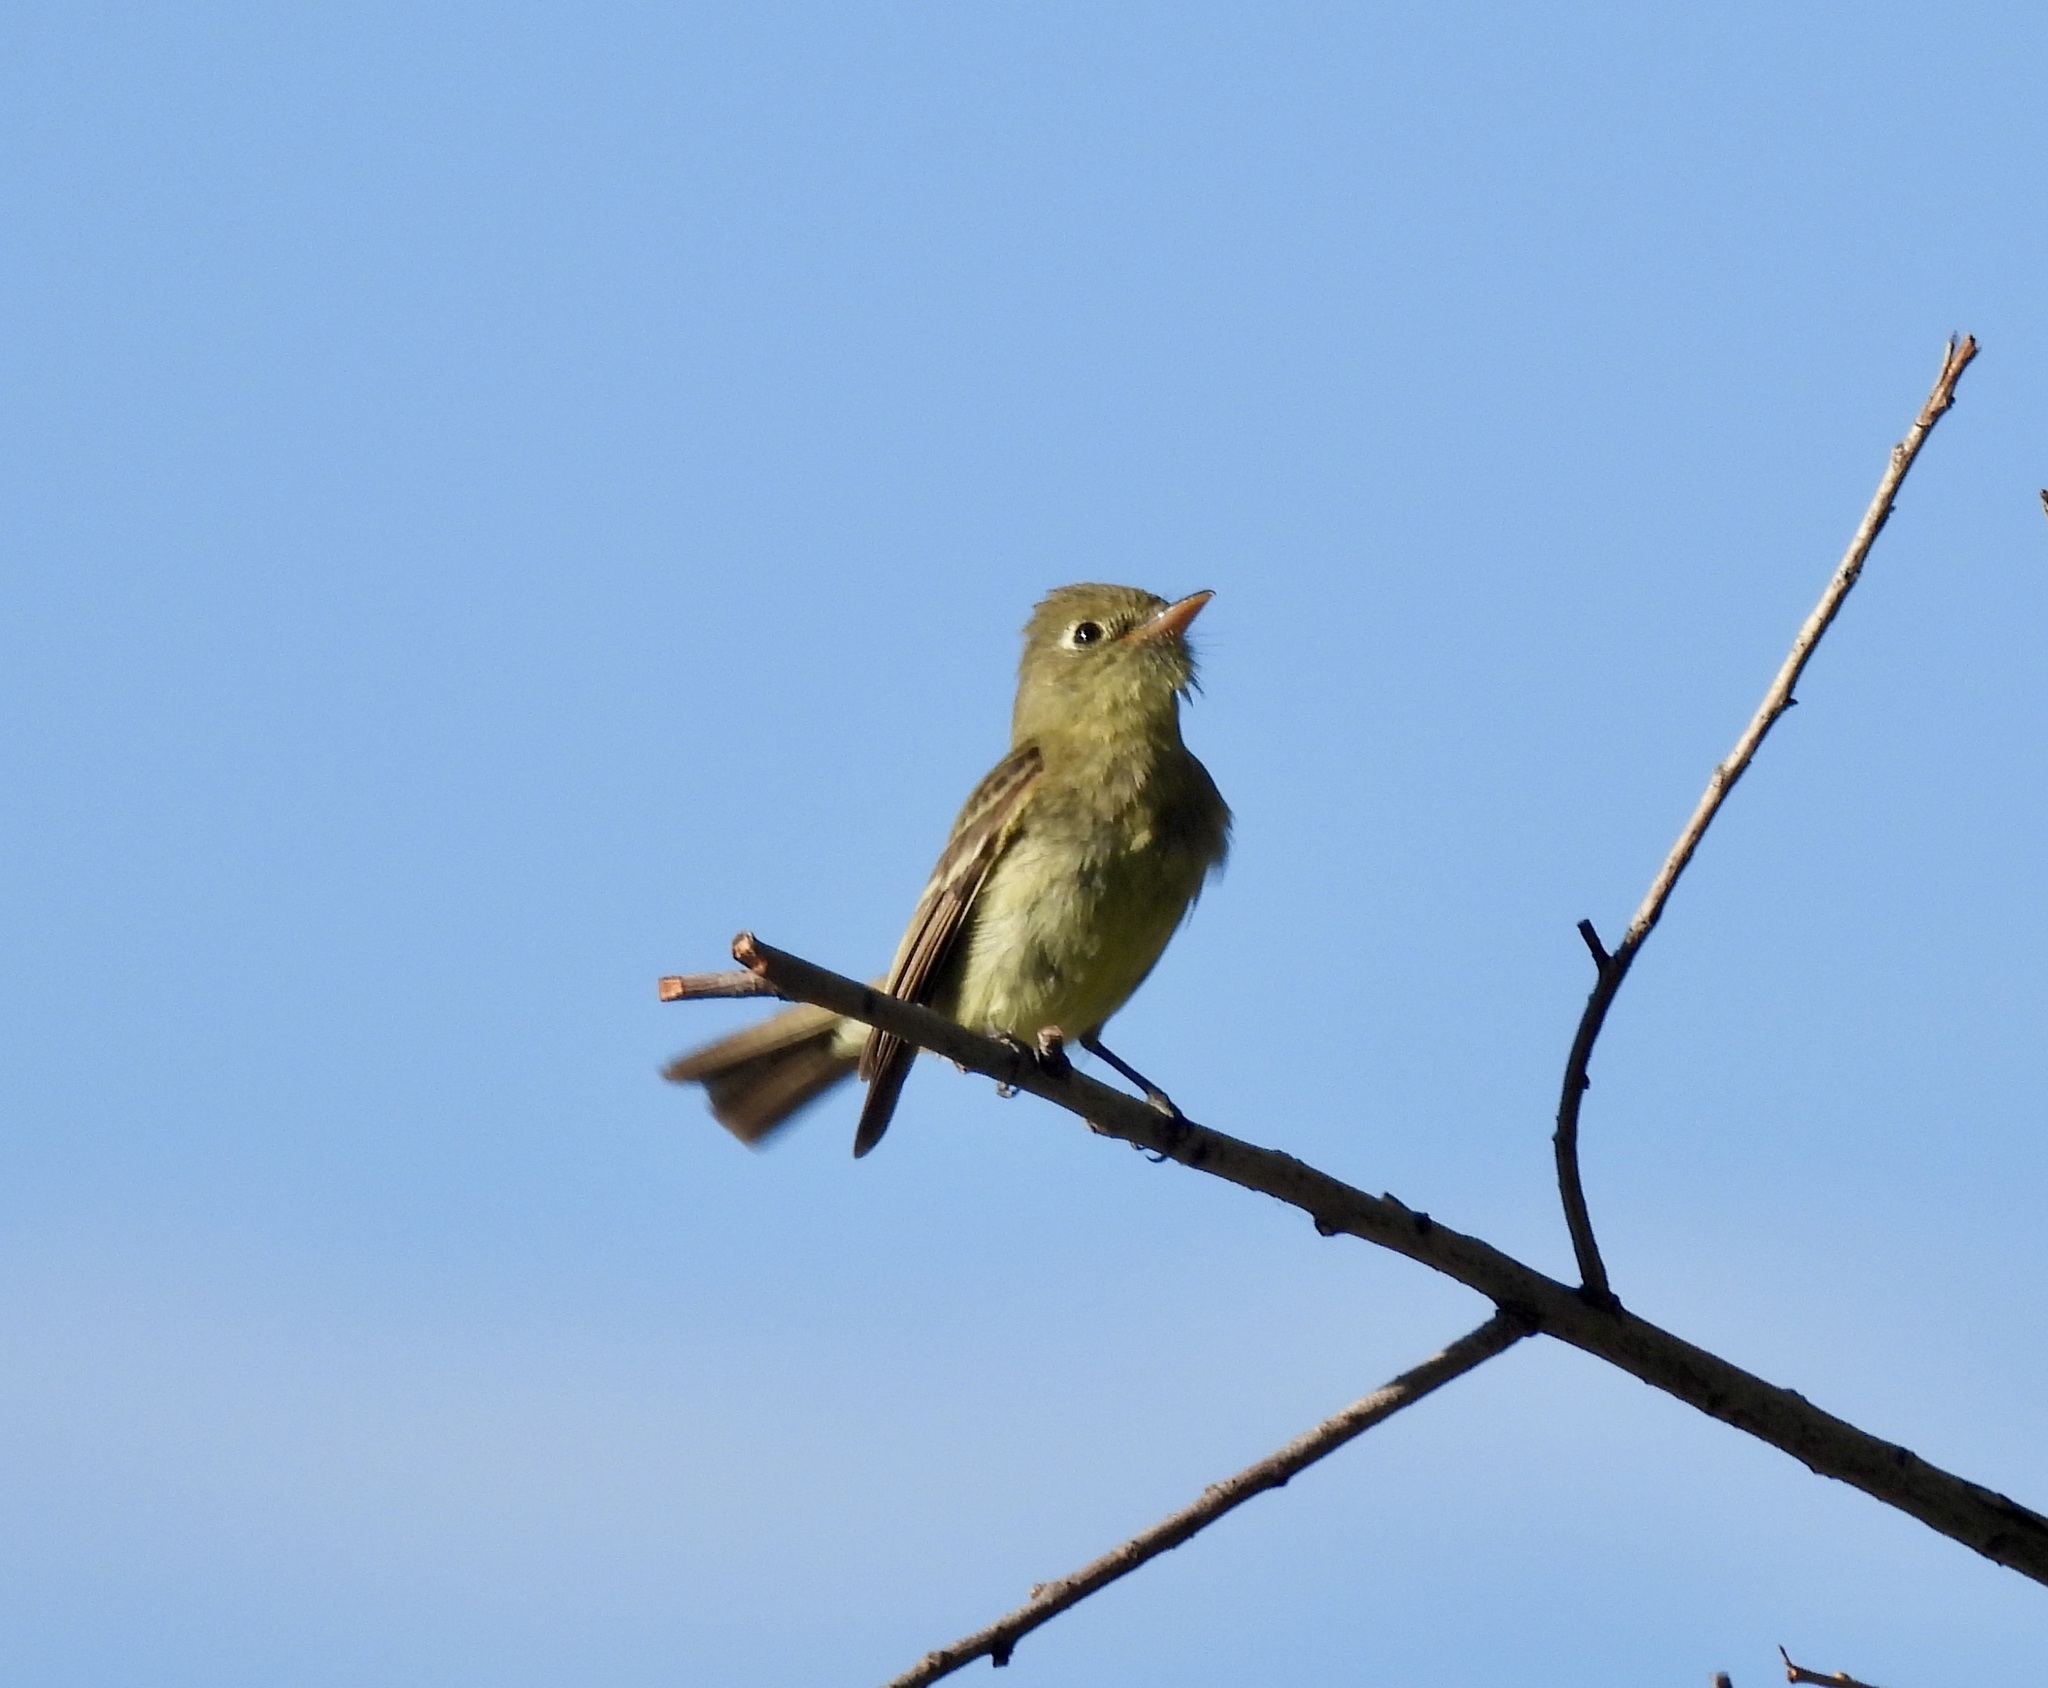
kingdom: Animalia
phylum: Chordata
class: Aves
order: Passeriformes
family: Tyrannidae
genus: Empidonax
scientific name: Empidonax difficilis
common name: Pacific-slope flycatcher
